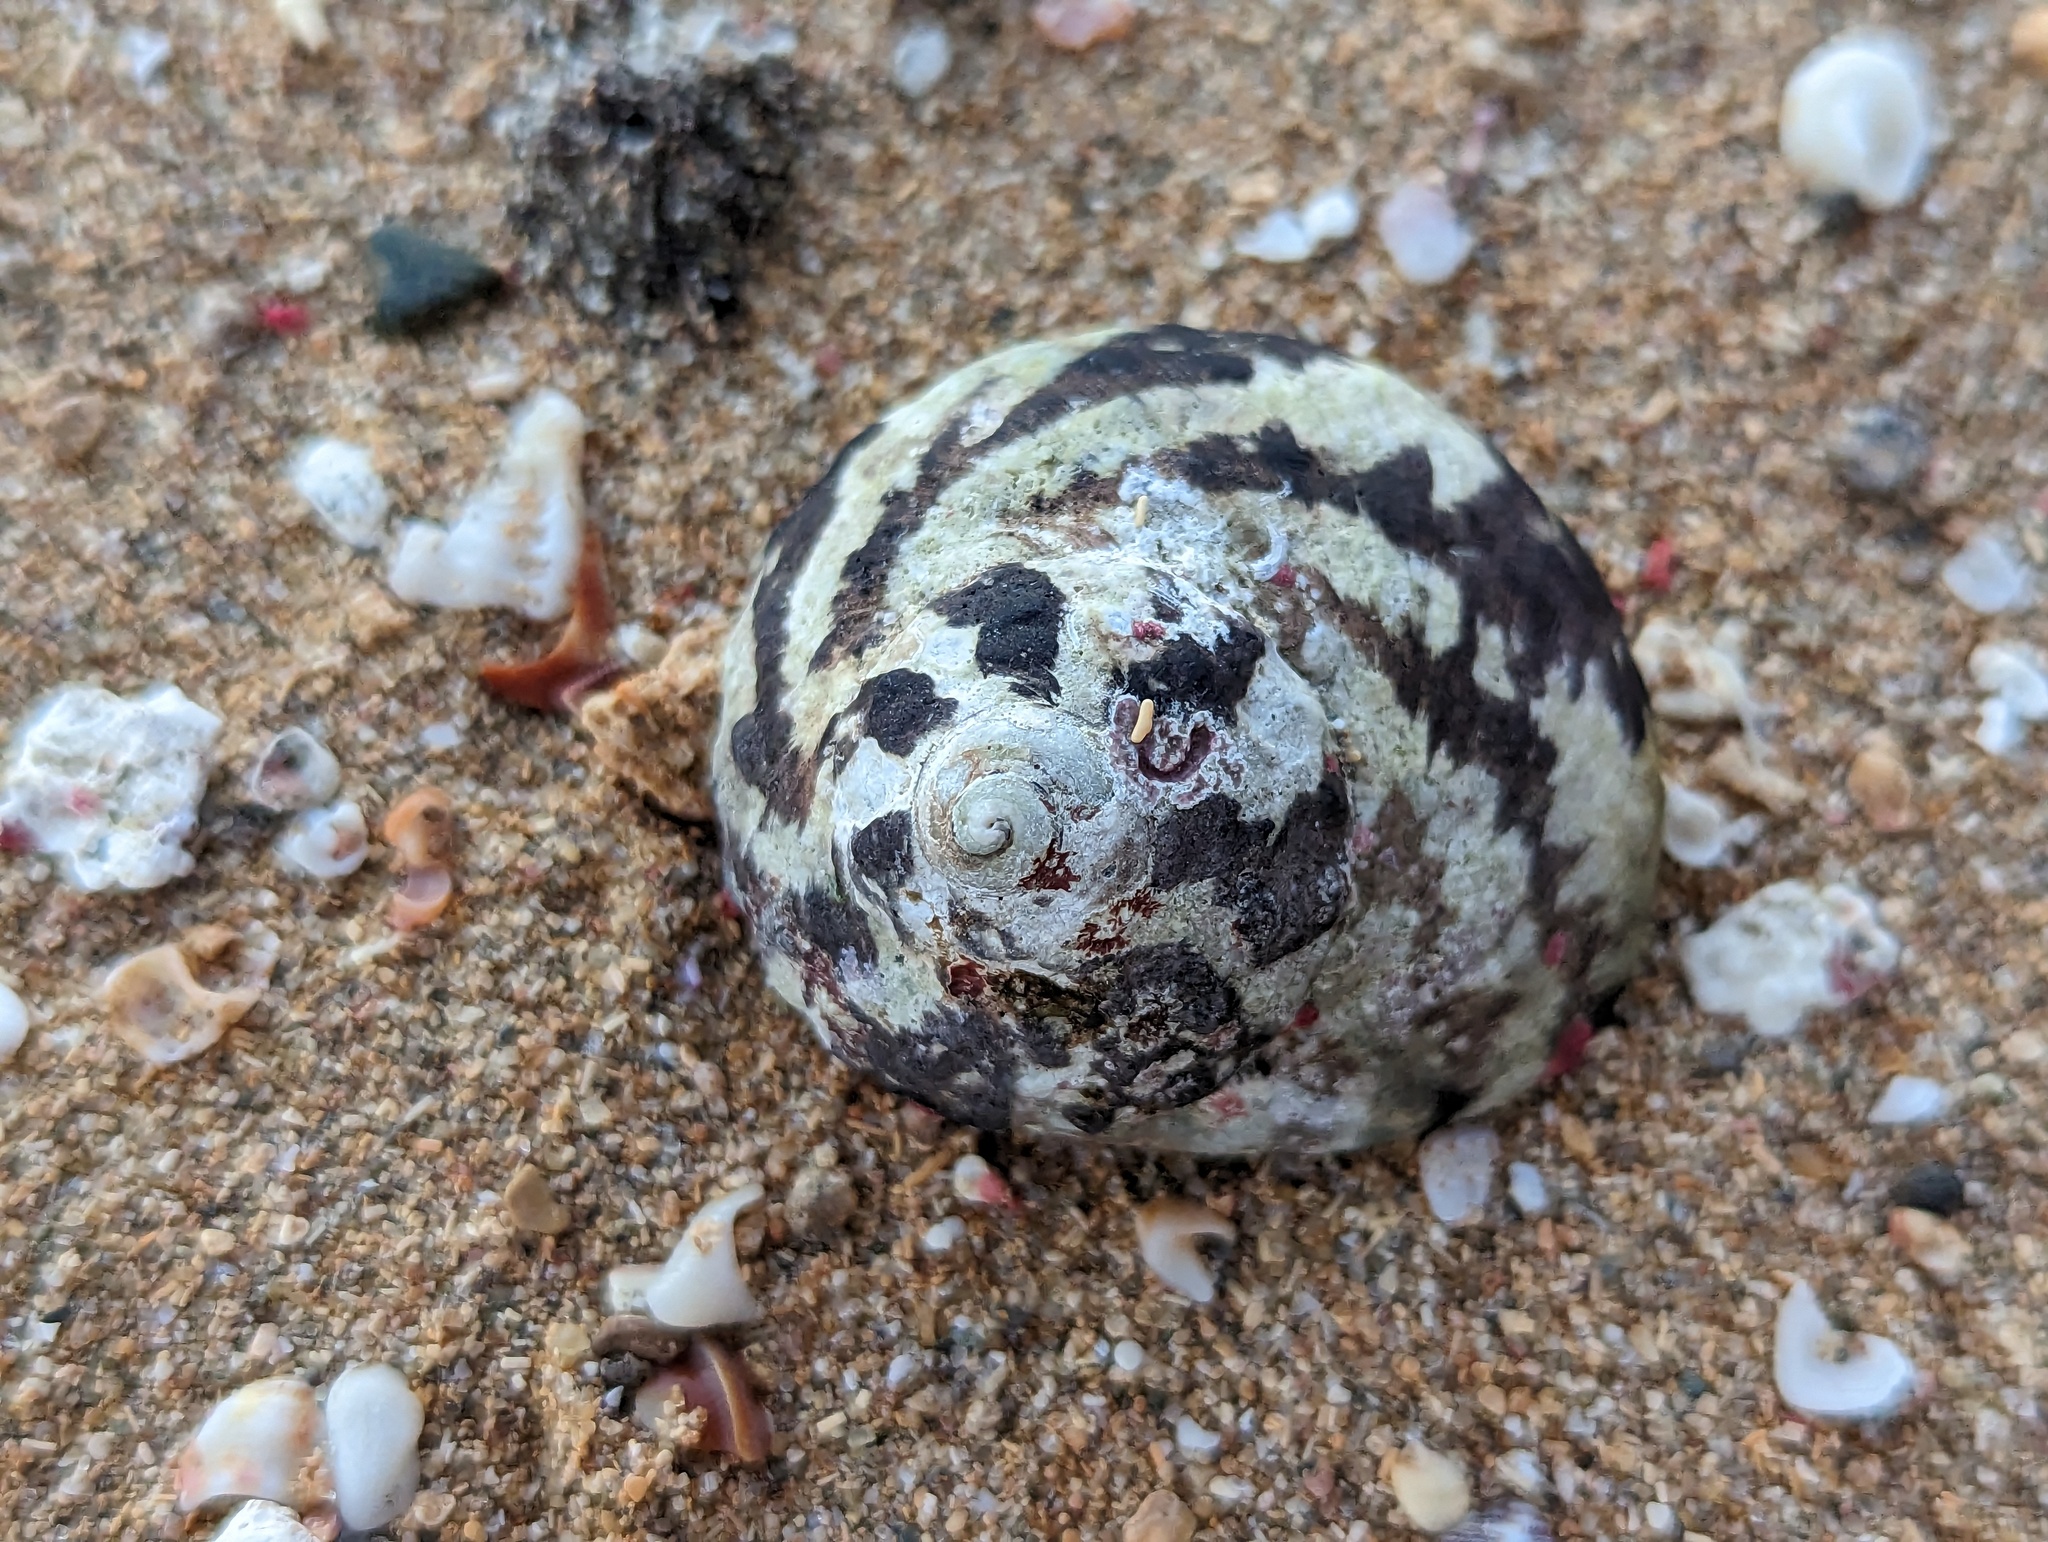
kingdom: Animalia
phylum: Mollusca
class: Gastropoda
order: Trochida
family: Tegulidae
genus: Cittarium
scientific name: Cittarium pica
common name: West indian topshell
